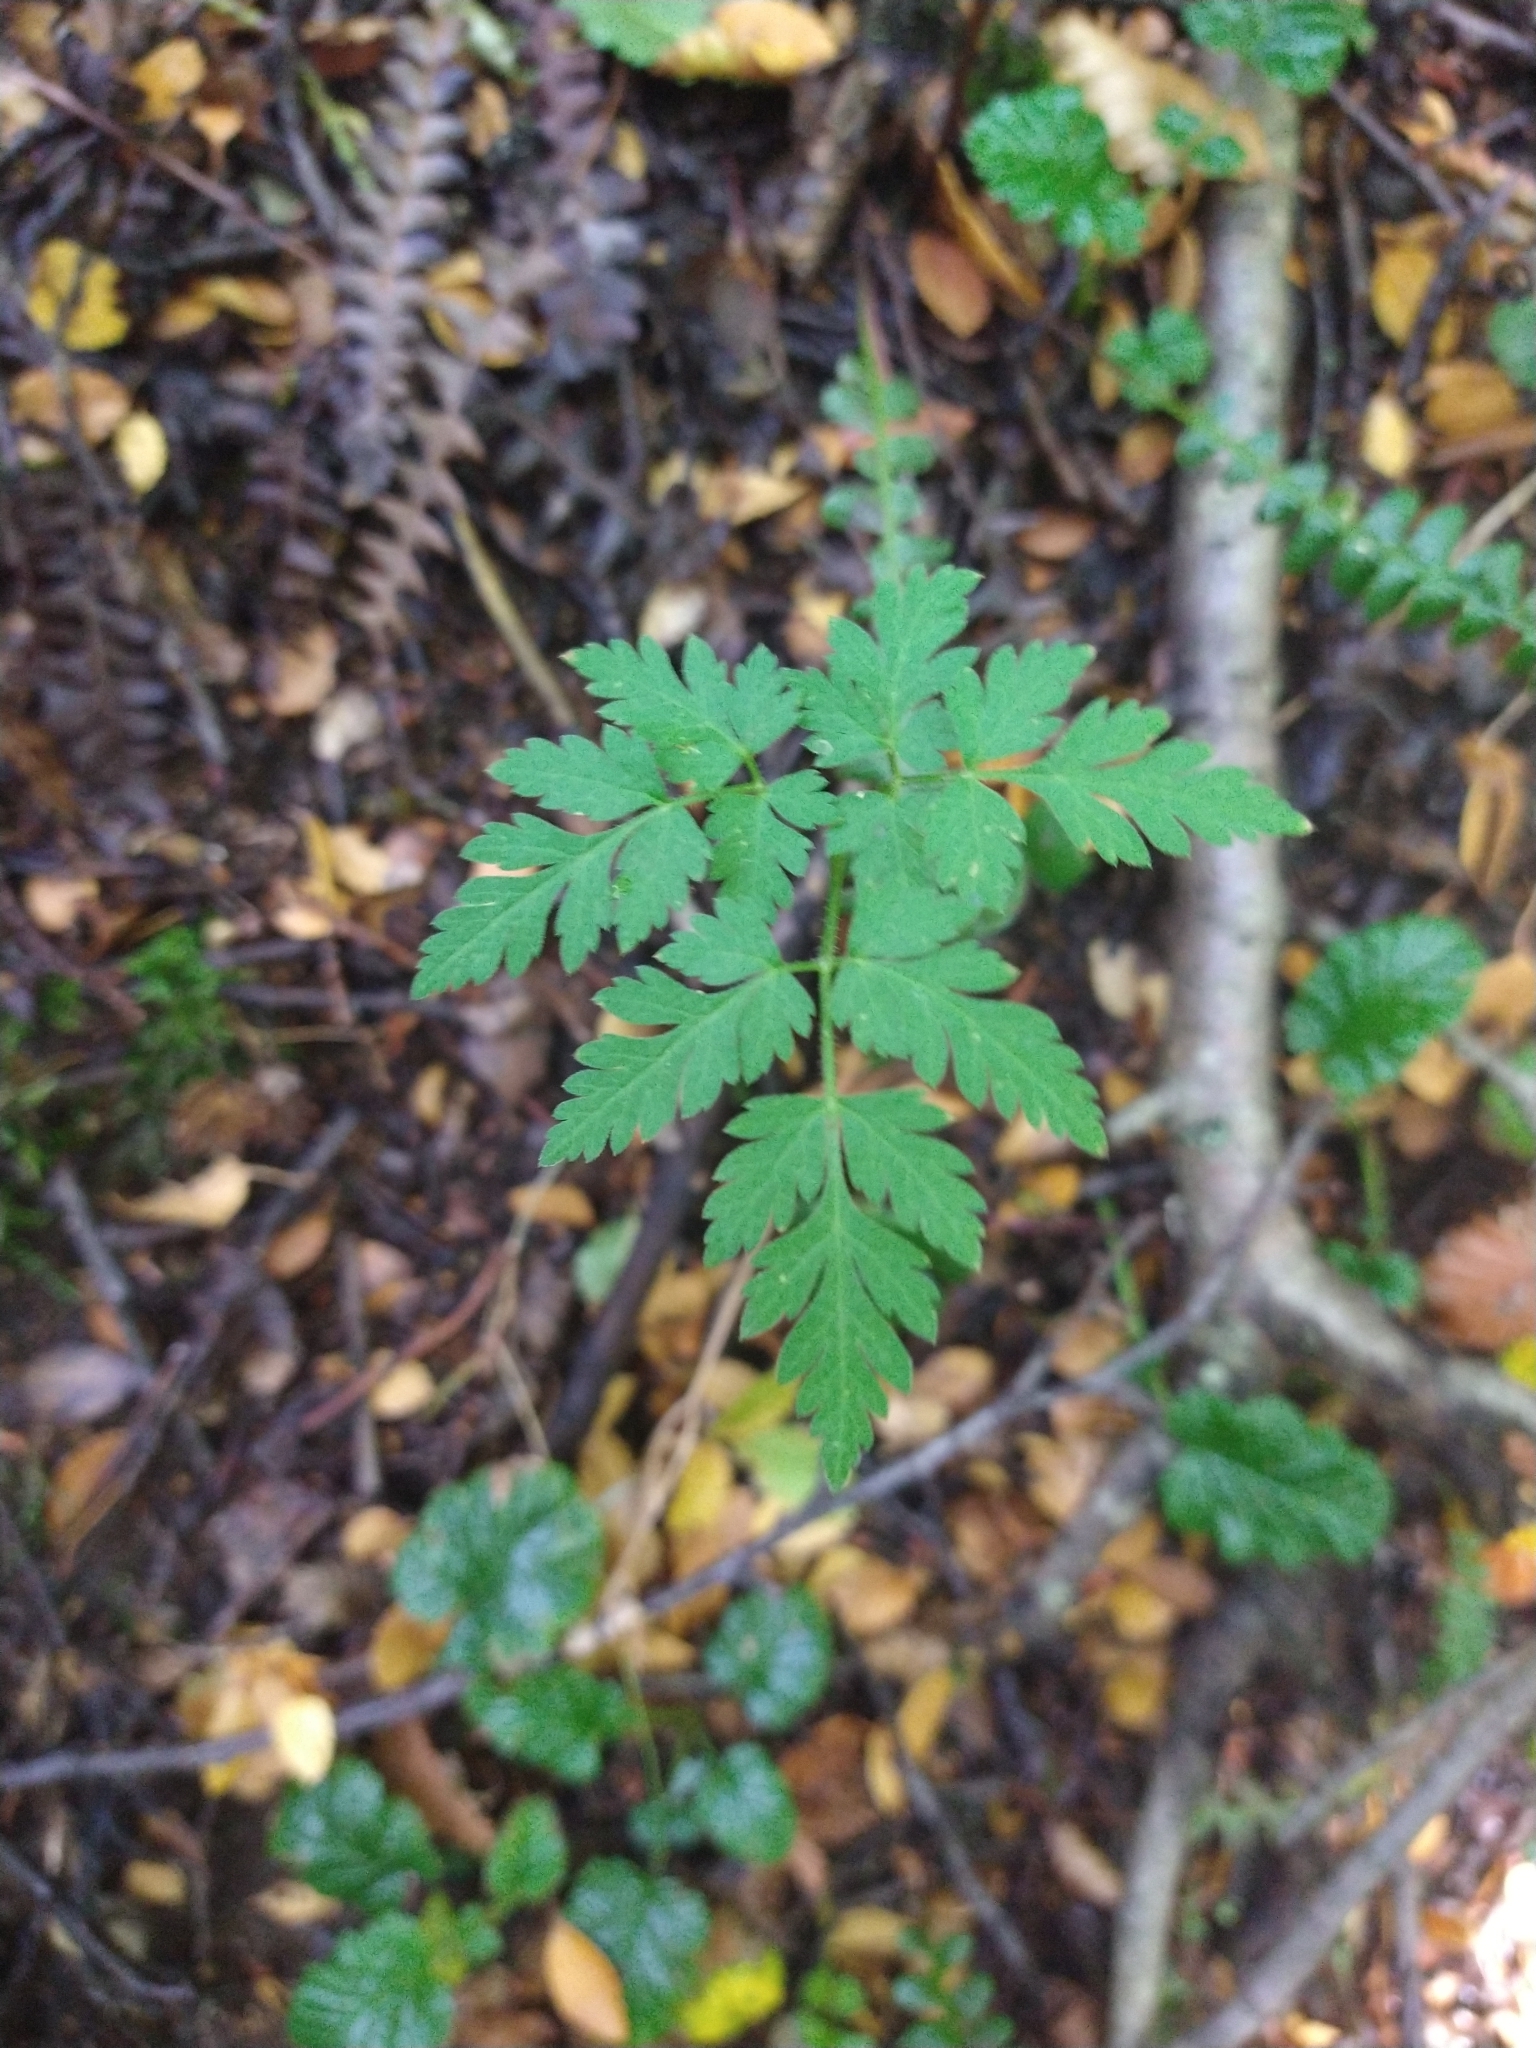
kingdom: Plantae
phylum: Tracheophyta
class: Magnoliopsida
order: Apiales
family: Apiaceae
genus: Osmorhiza
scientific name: Osmorhiza berteroi
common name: Mountain sweet cicely
